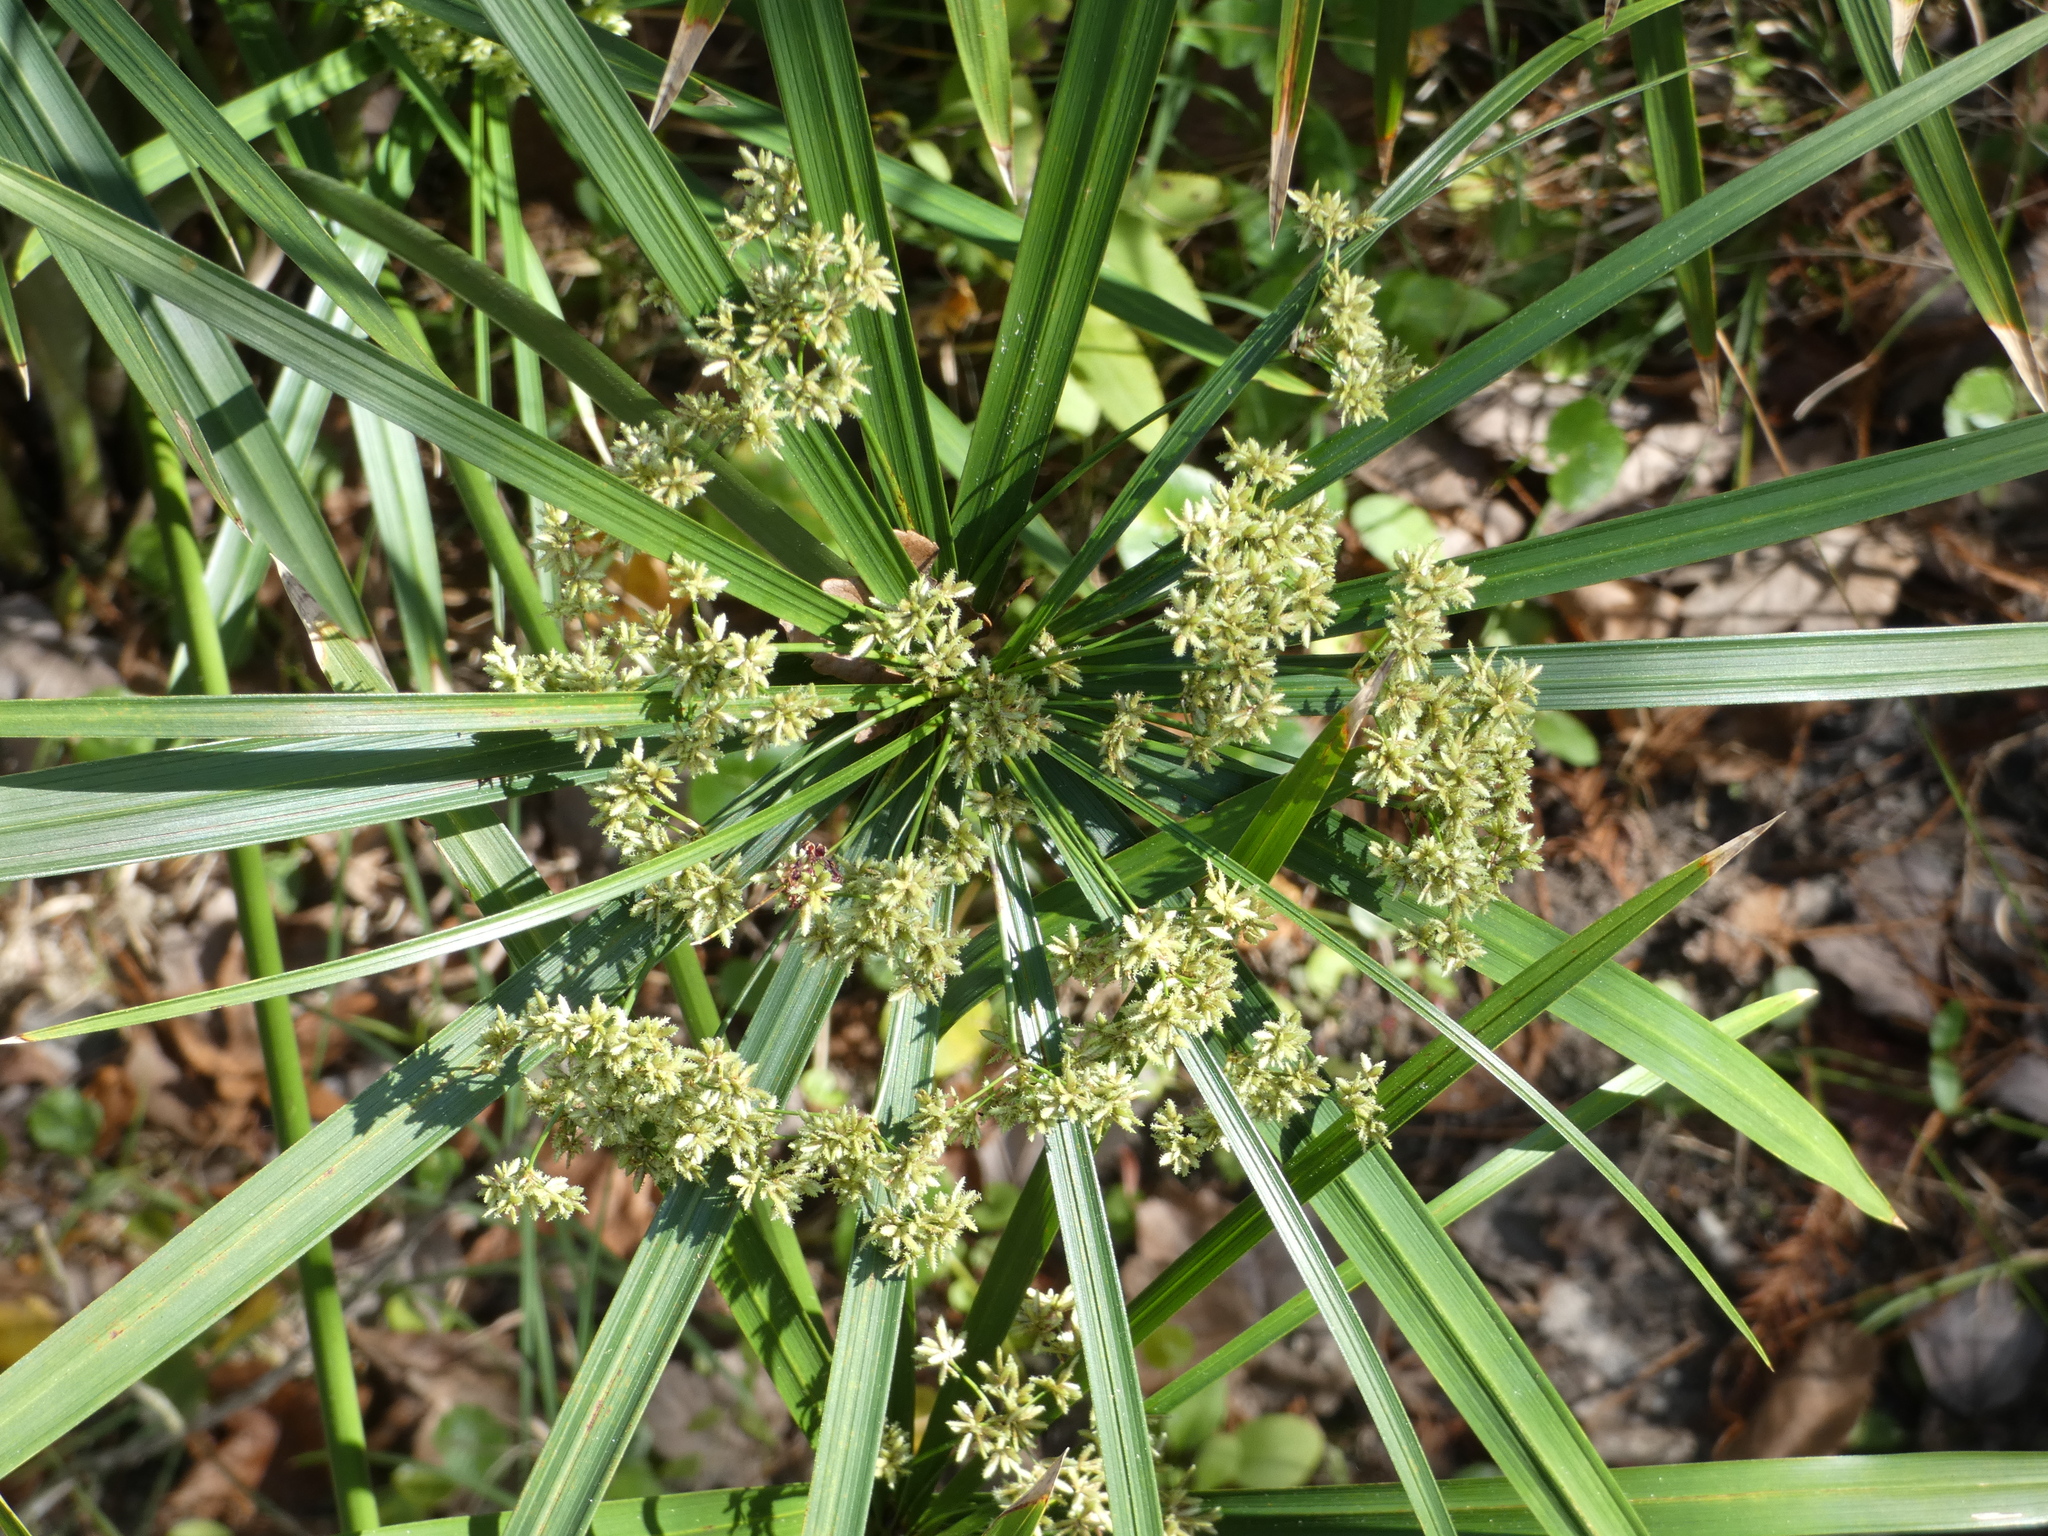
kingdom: Plantae
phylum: Tracheophyta
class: Liliopsida
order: Poales
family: Cyperaceae
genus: Cyperus
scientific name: Cyperus alternifolius
